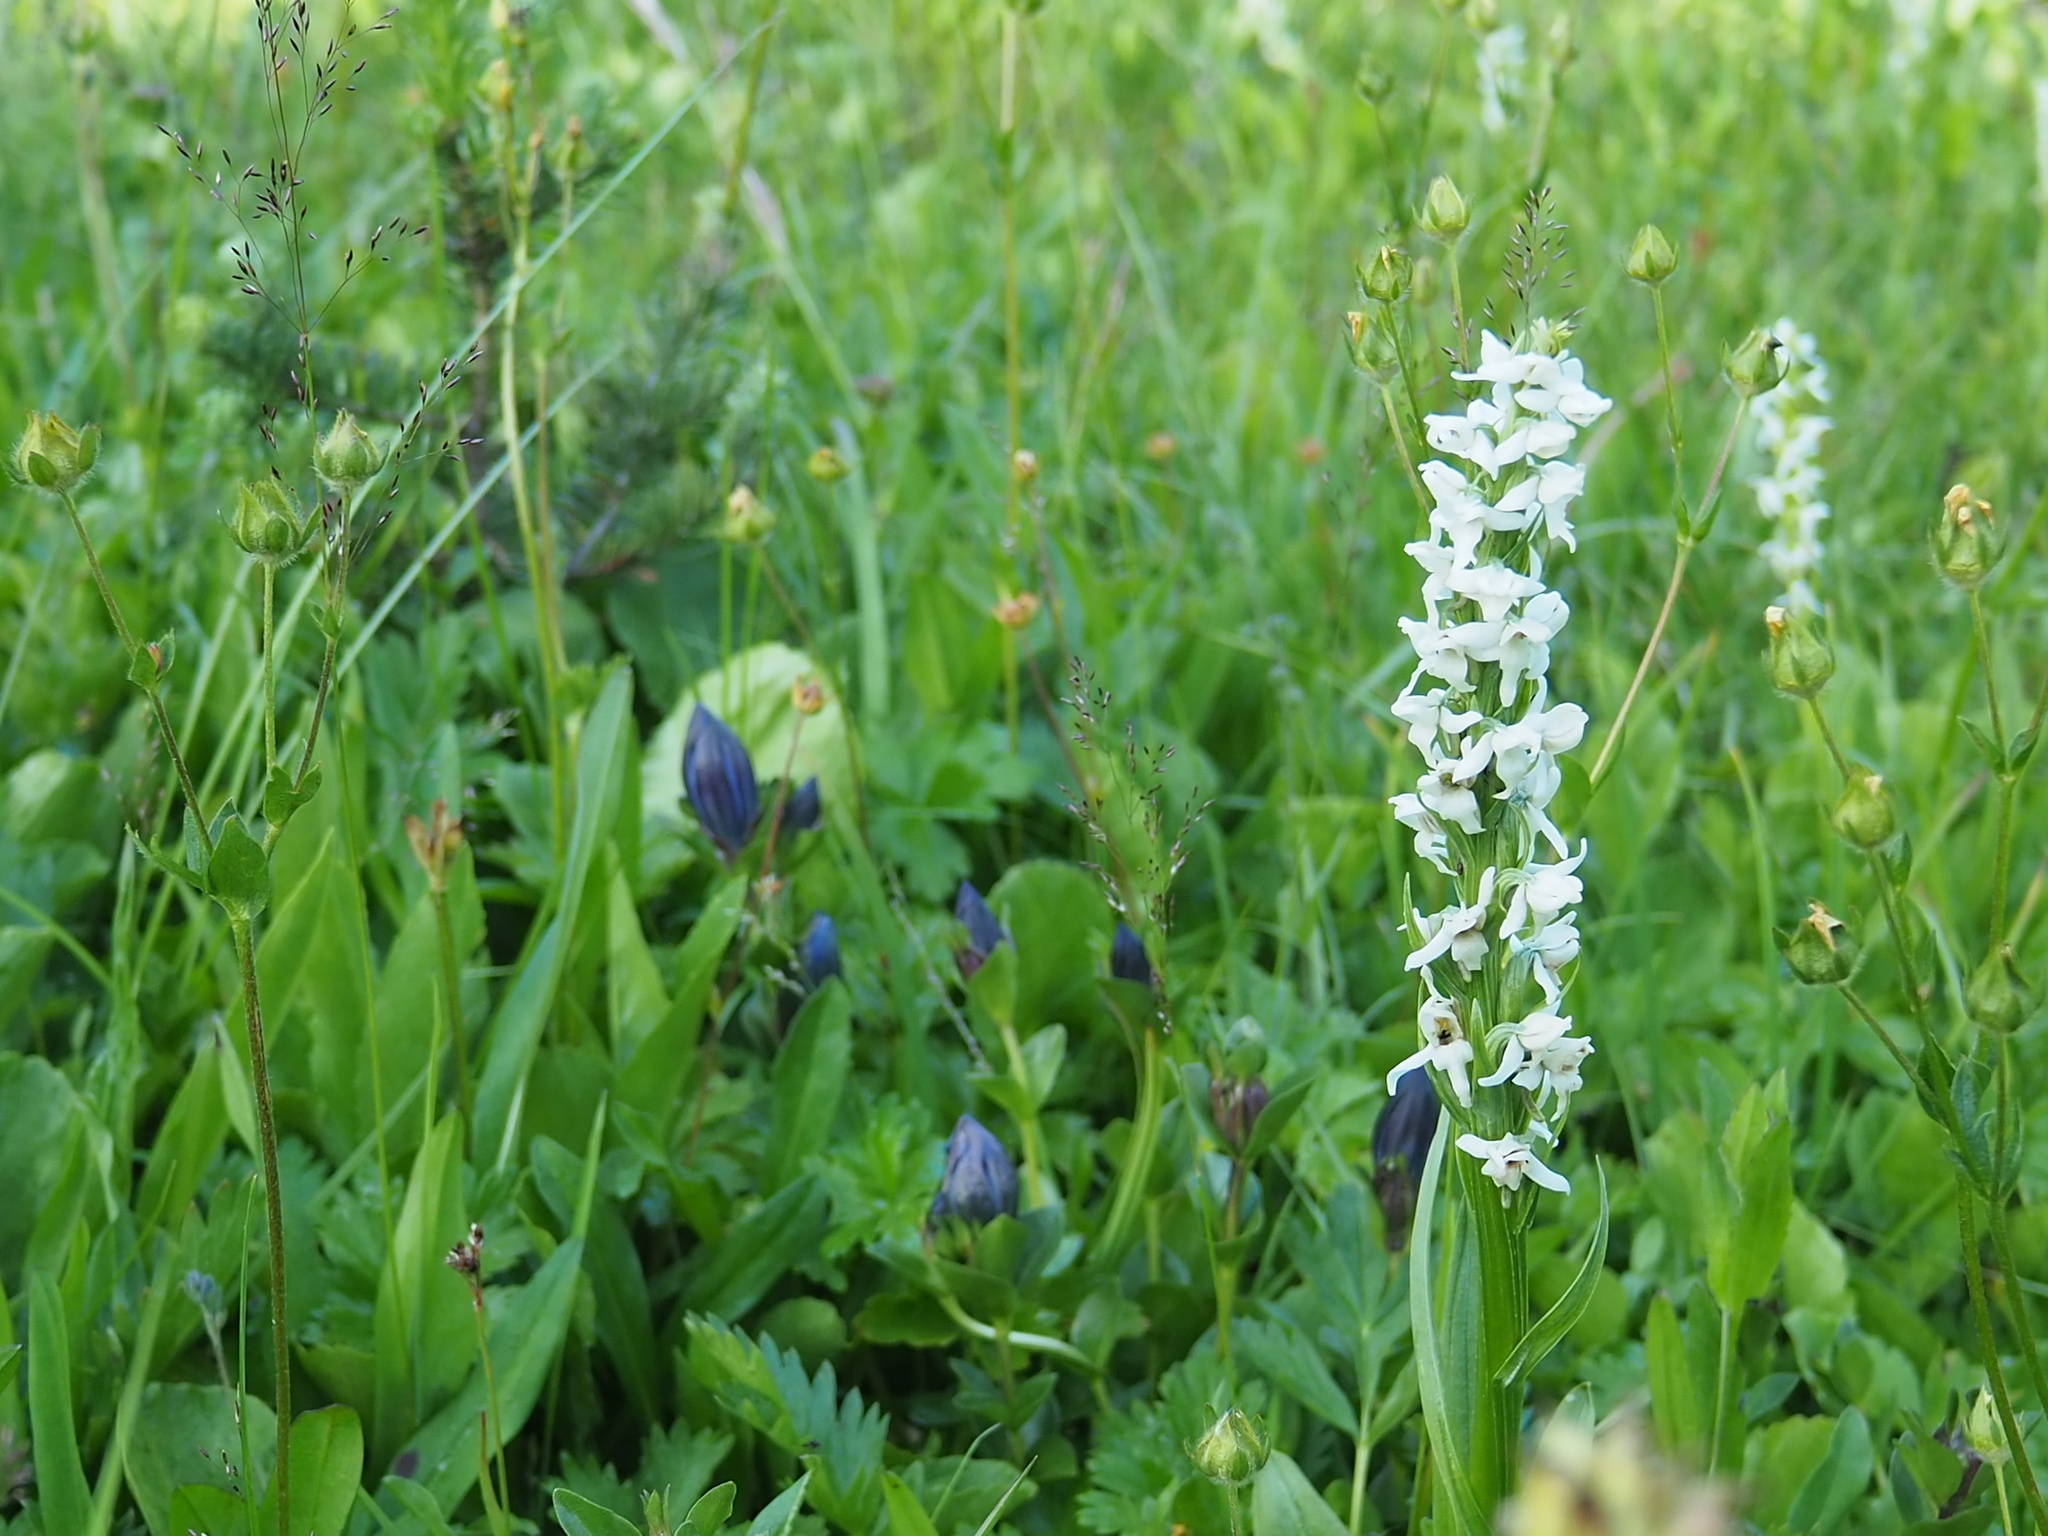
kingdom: Plantae
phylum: Tracheophyta
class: Liliopsida
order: Asparagales
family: Orchidaceae
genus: Platanthera
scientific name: Platanthera dilatata
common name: Bog candles
